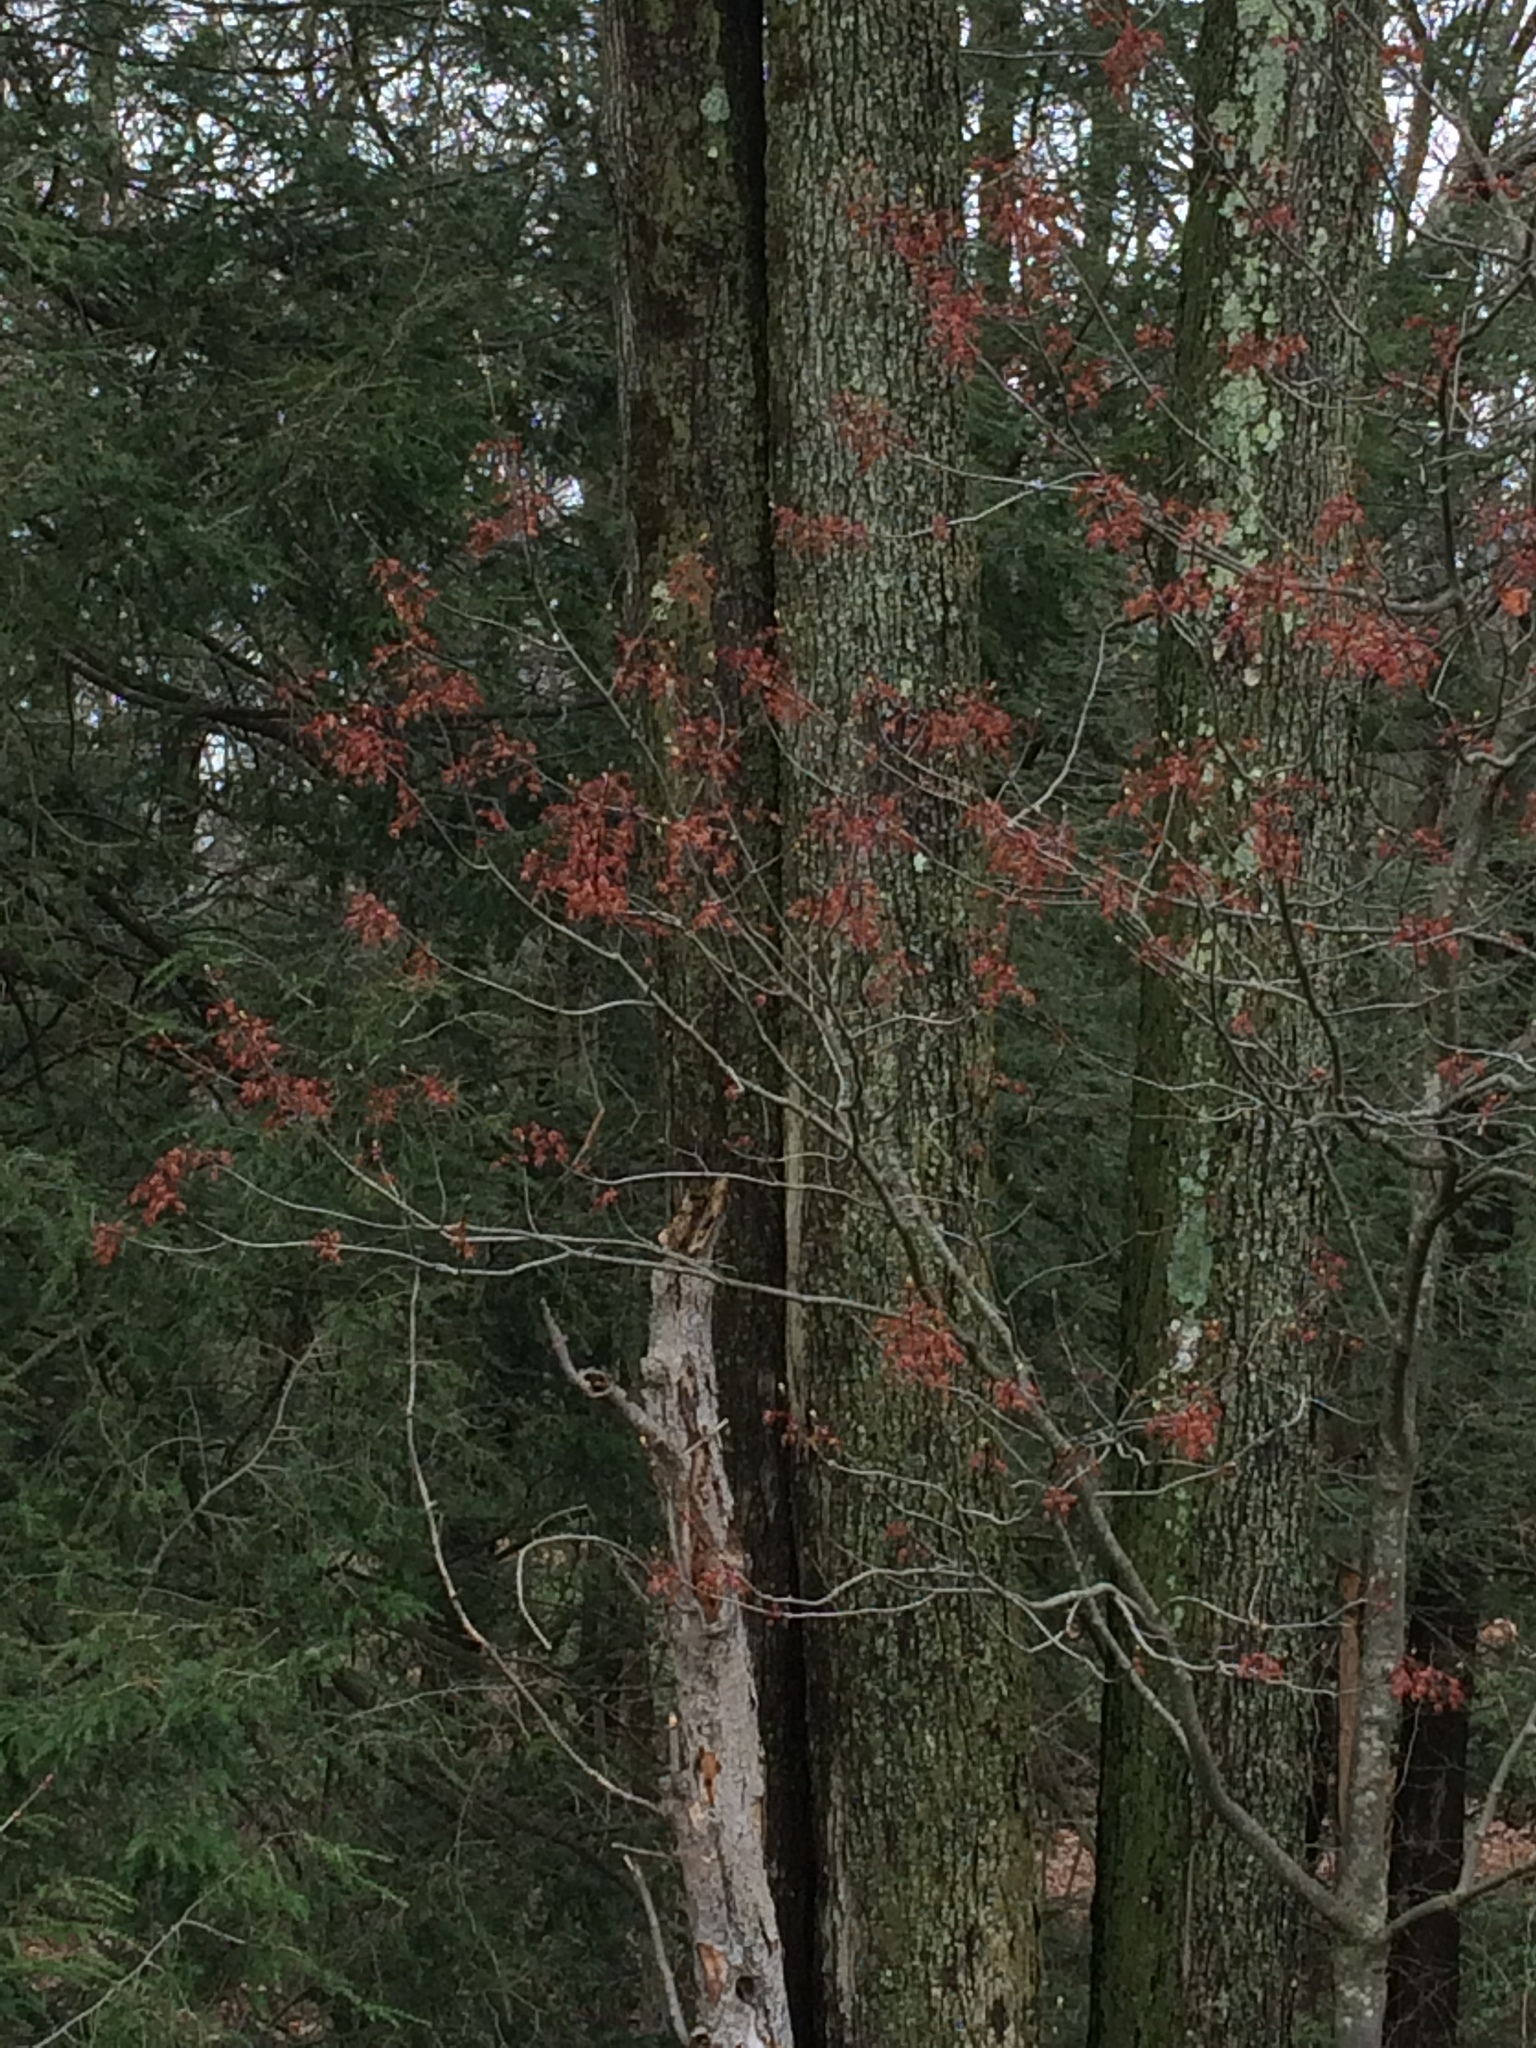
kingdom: Plantae
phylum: Tracheophyta
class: Magnoliopsida
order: Sapindales
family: Sapindaceae
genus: Acer
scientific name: Acer rubrum
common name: Red maple
